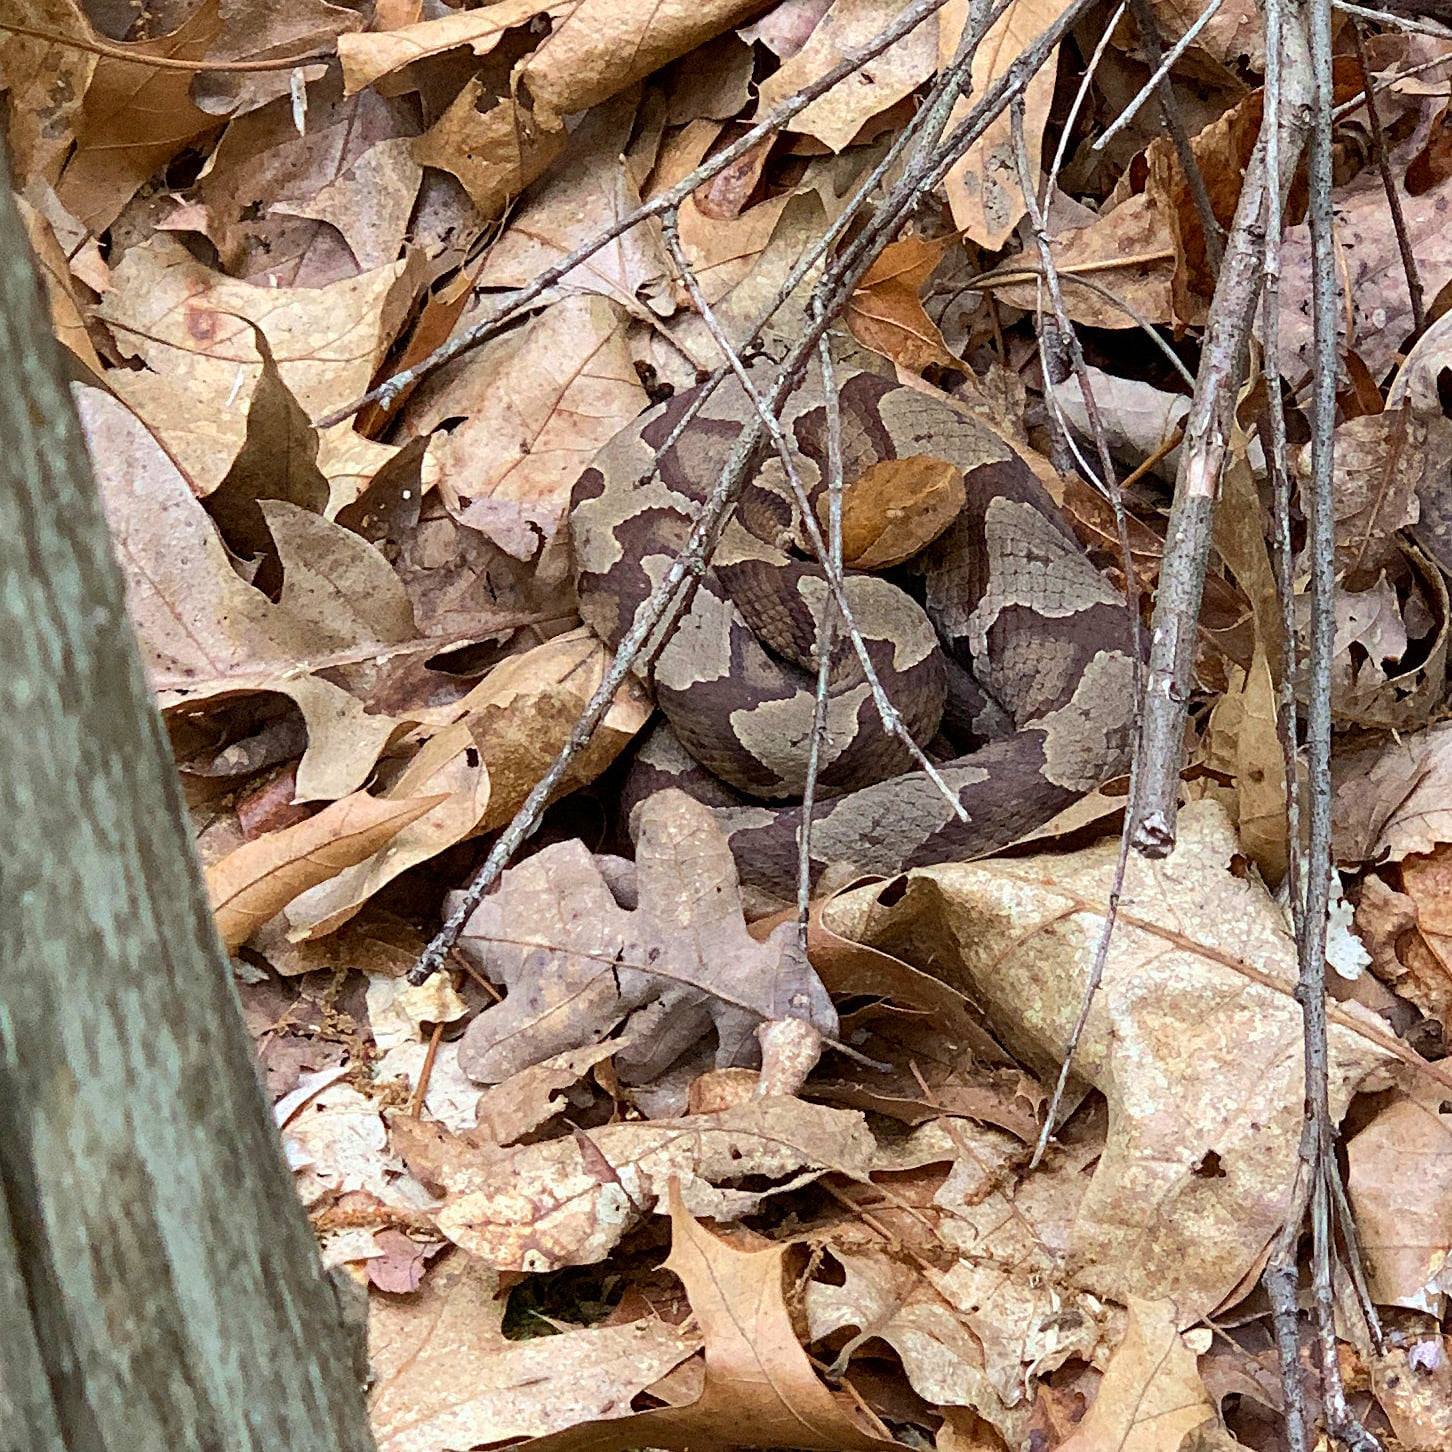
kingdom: Animalia
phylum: Chordata
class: Squamata
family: Viperidae
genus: Agkistrodon
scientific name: Agkistrodon contortrix
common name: Northern copperhead
